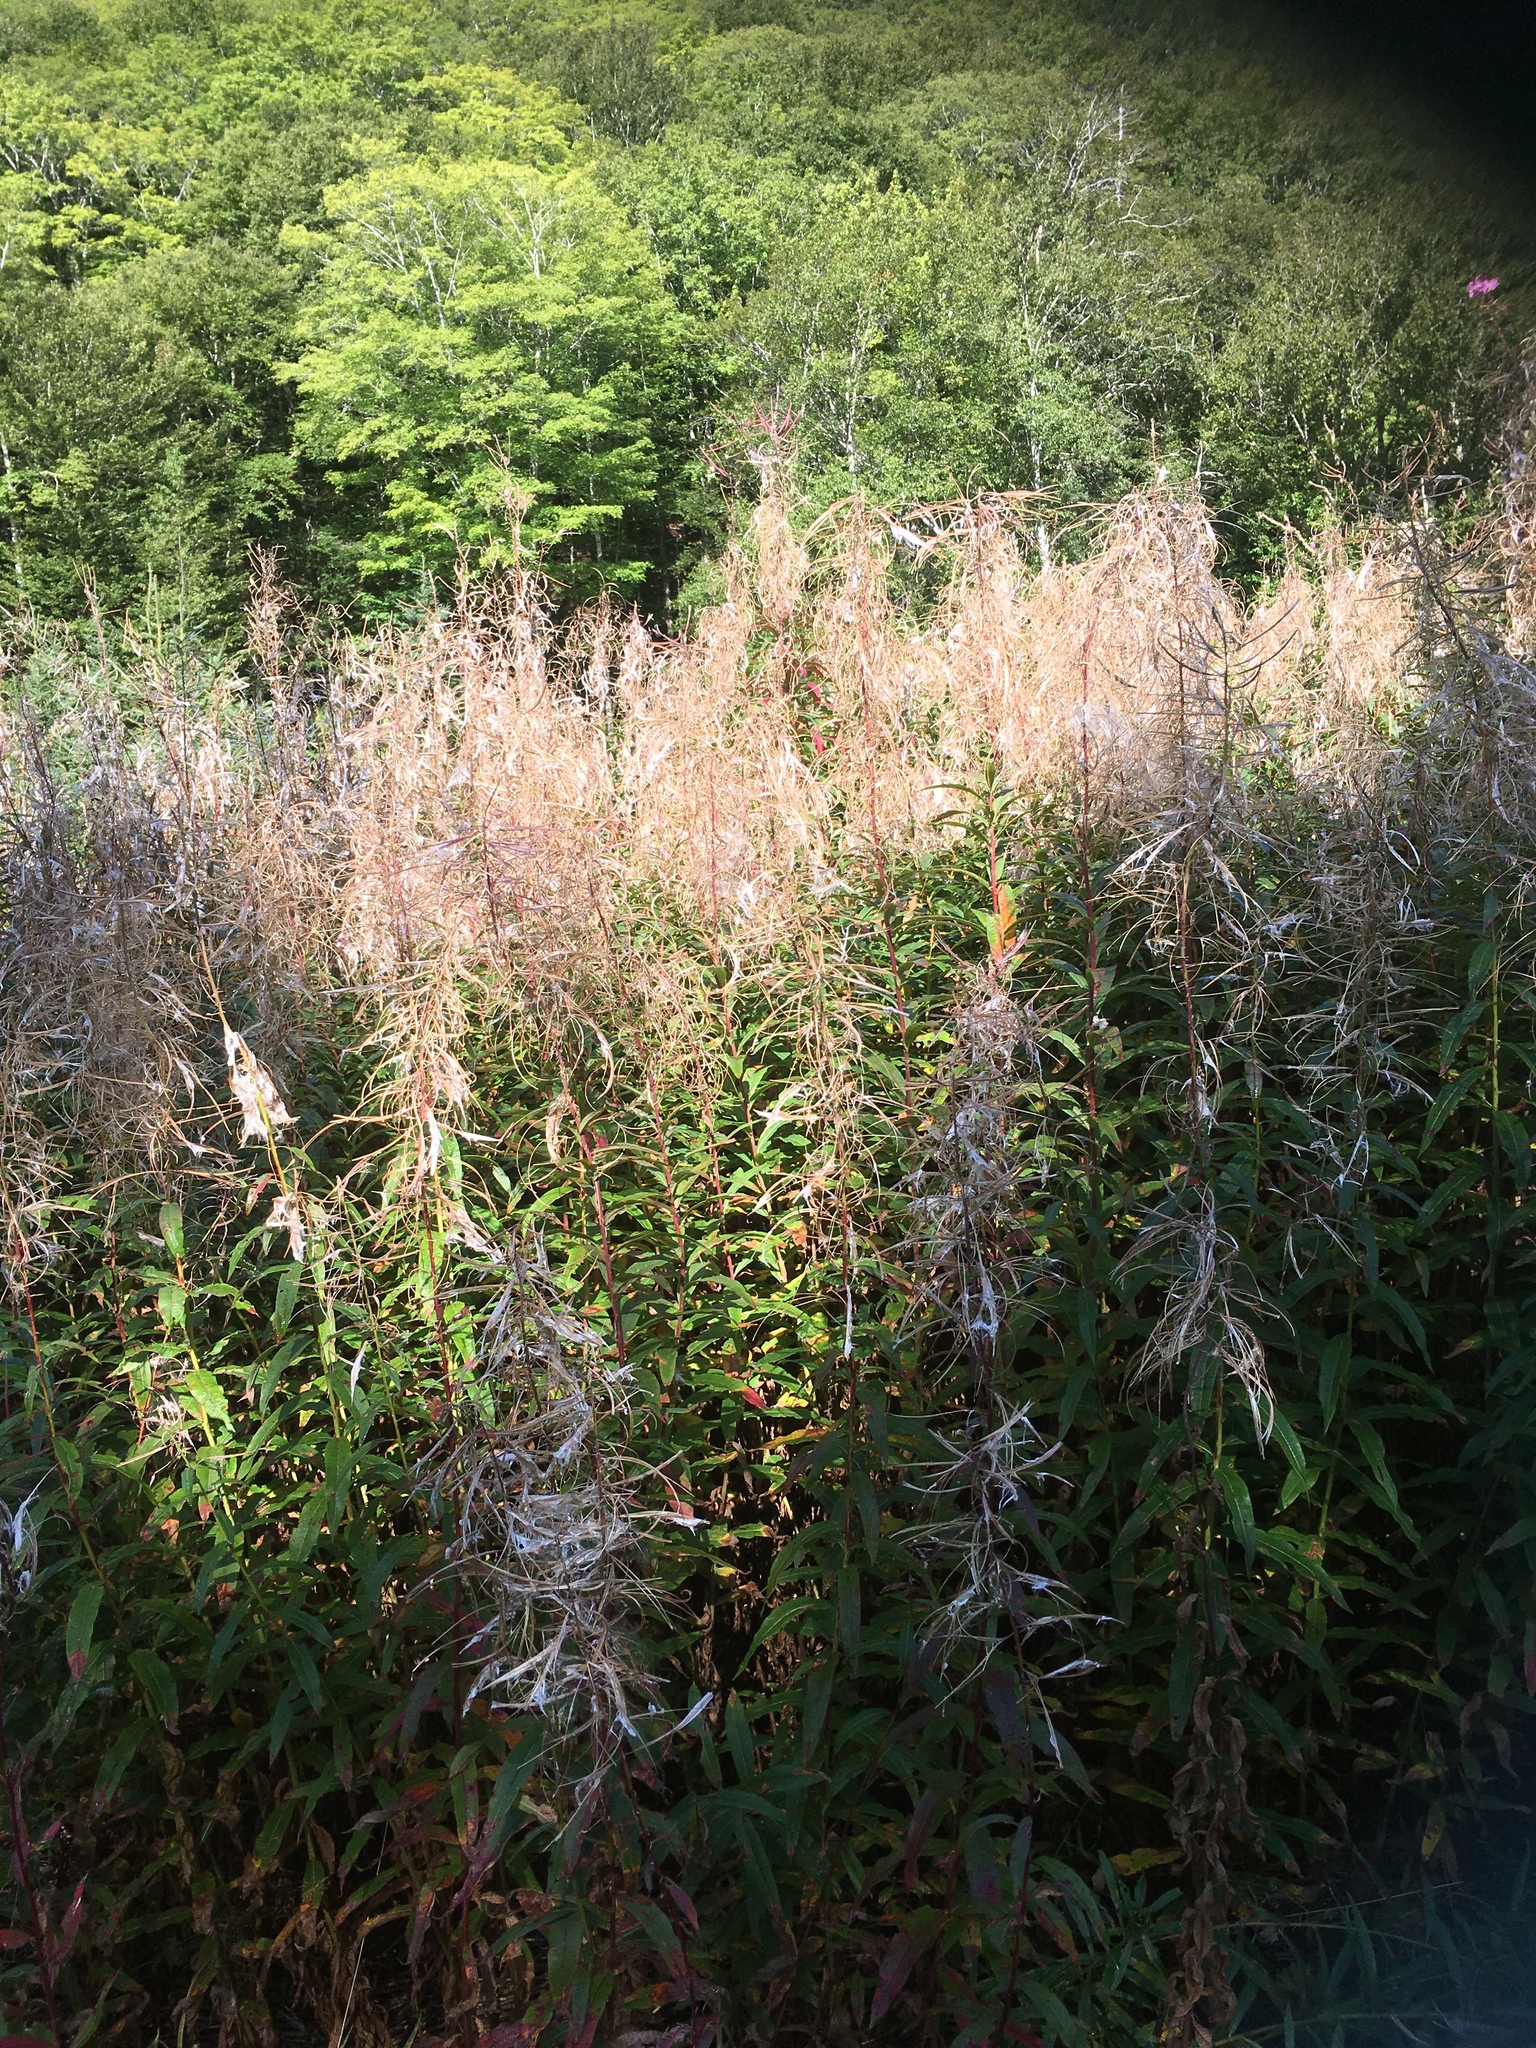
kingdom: Plantae
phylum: Tracheophyta
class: Magnoliopsida
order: Myrtales
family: Onagraceae
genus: Chamaenerion
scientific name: Chamaenerion angustifolium
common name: Fireweed
